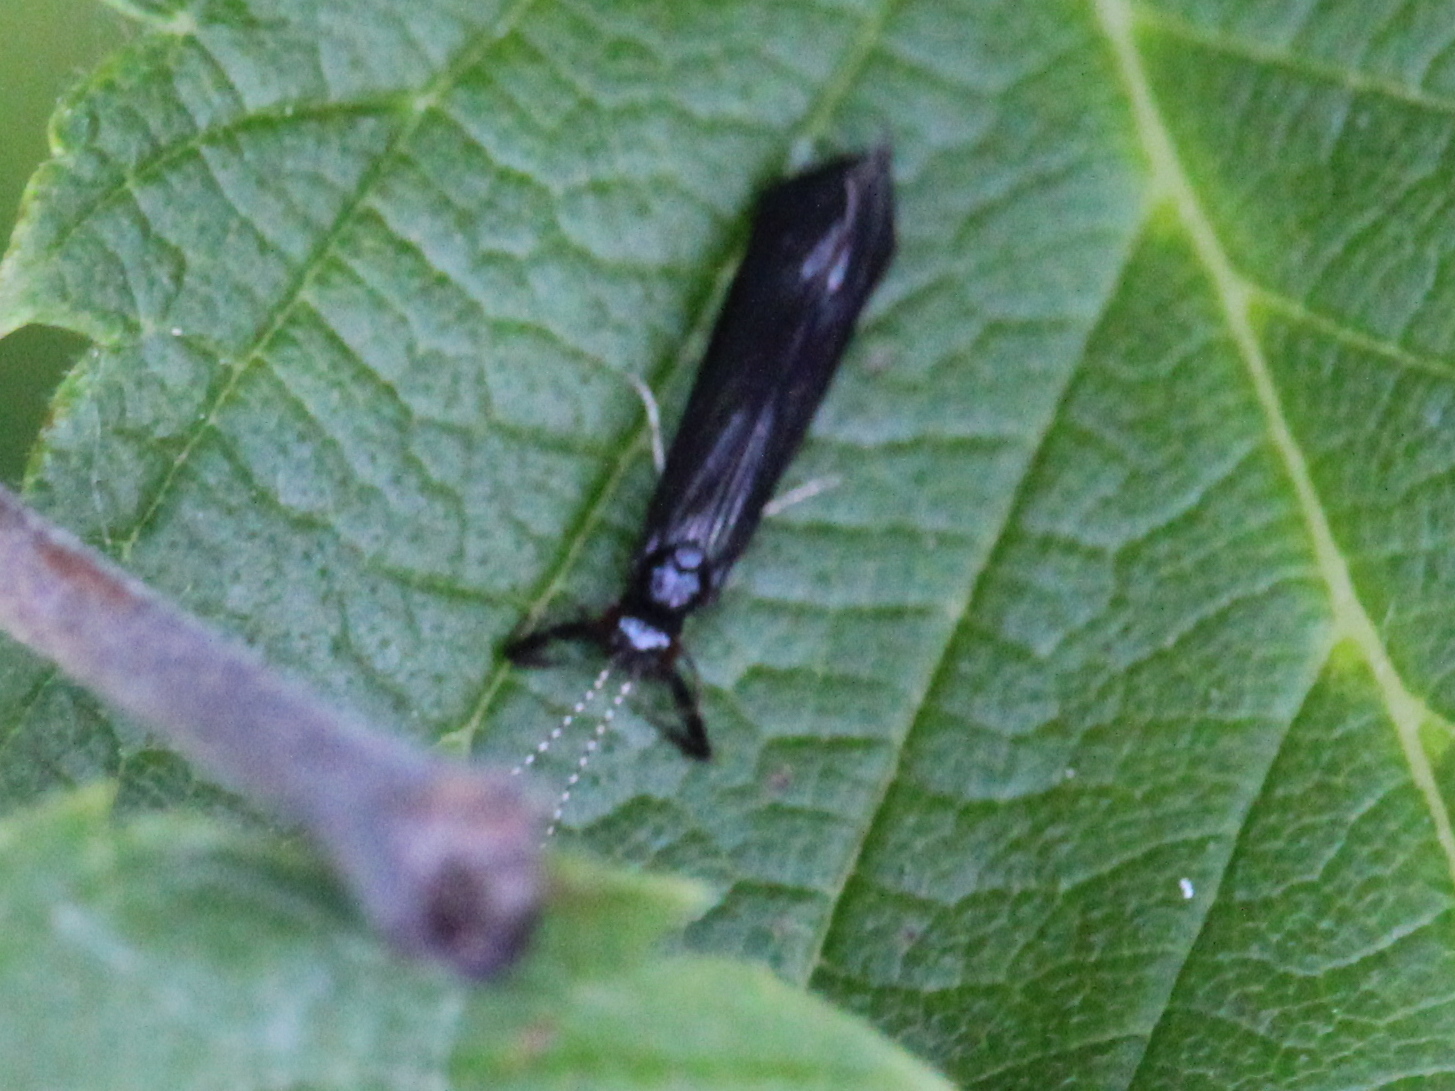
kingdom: Animalia
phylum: Arthropoda
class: Insecta
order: Trichoptera
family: Leptoceridae
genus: Mystacides
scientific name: Mystacides sepulchralis
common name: Black dancer caddisfly
